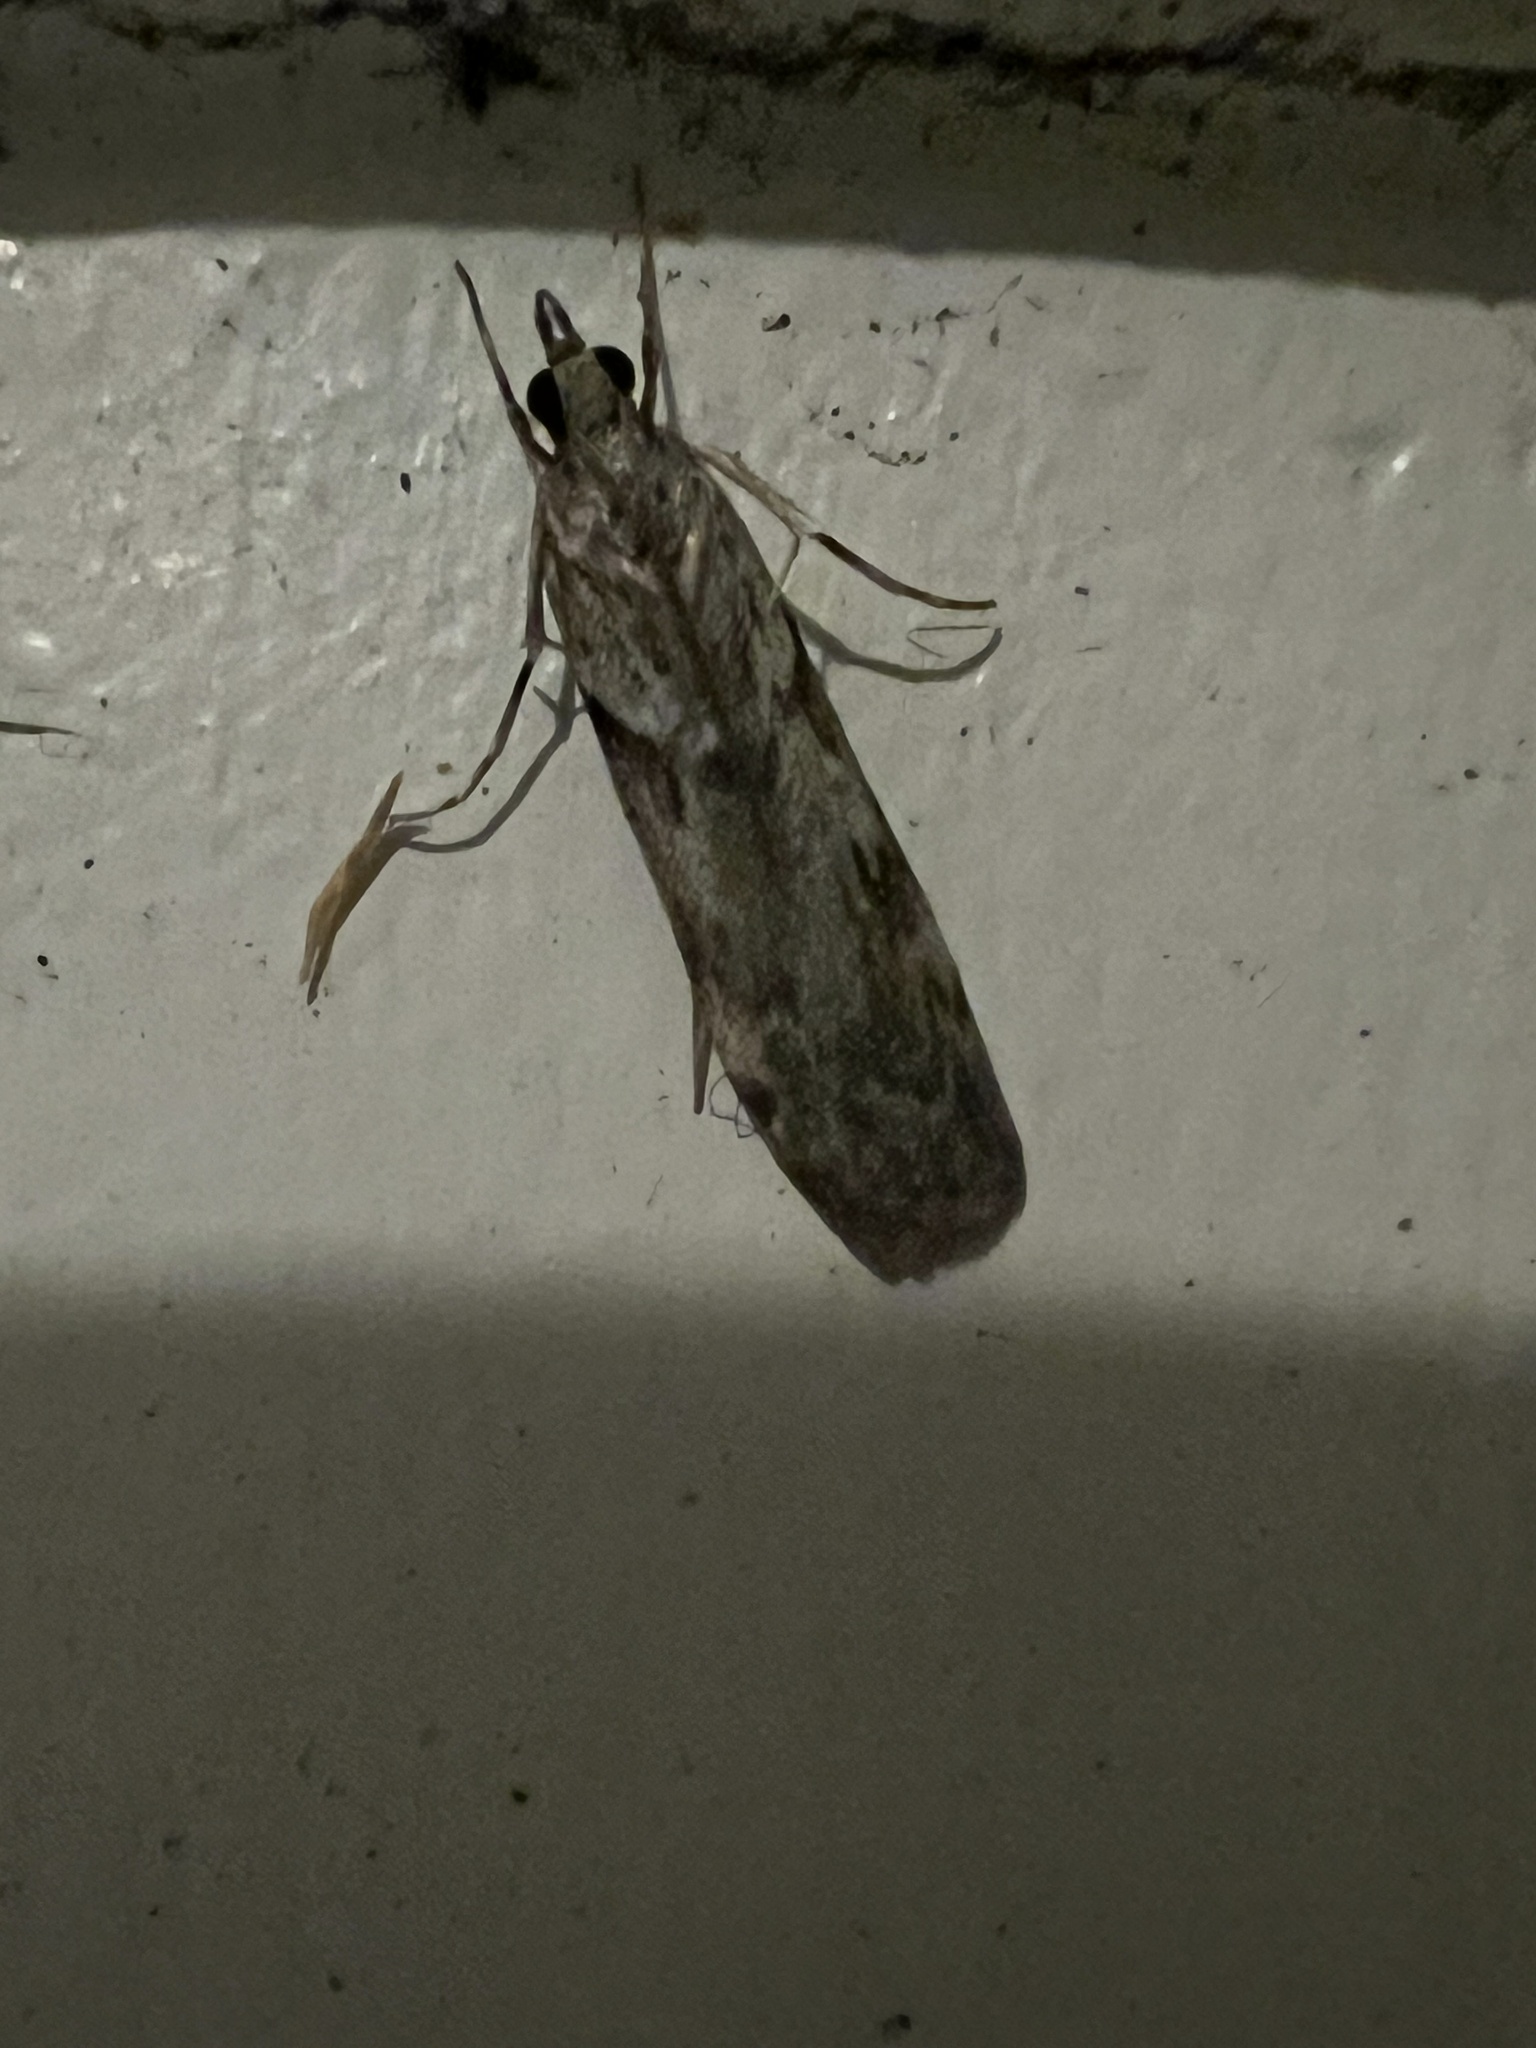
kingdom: Animalia
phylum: Arthropoda
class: Insecta
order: Lepidoptera
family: Crambidae
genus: Scoparia
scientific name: Scoparia halopis
